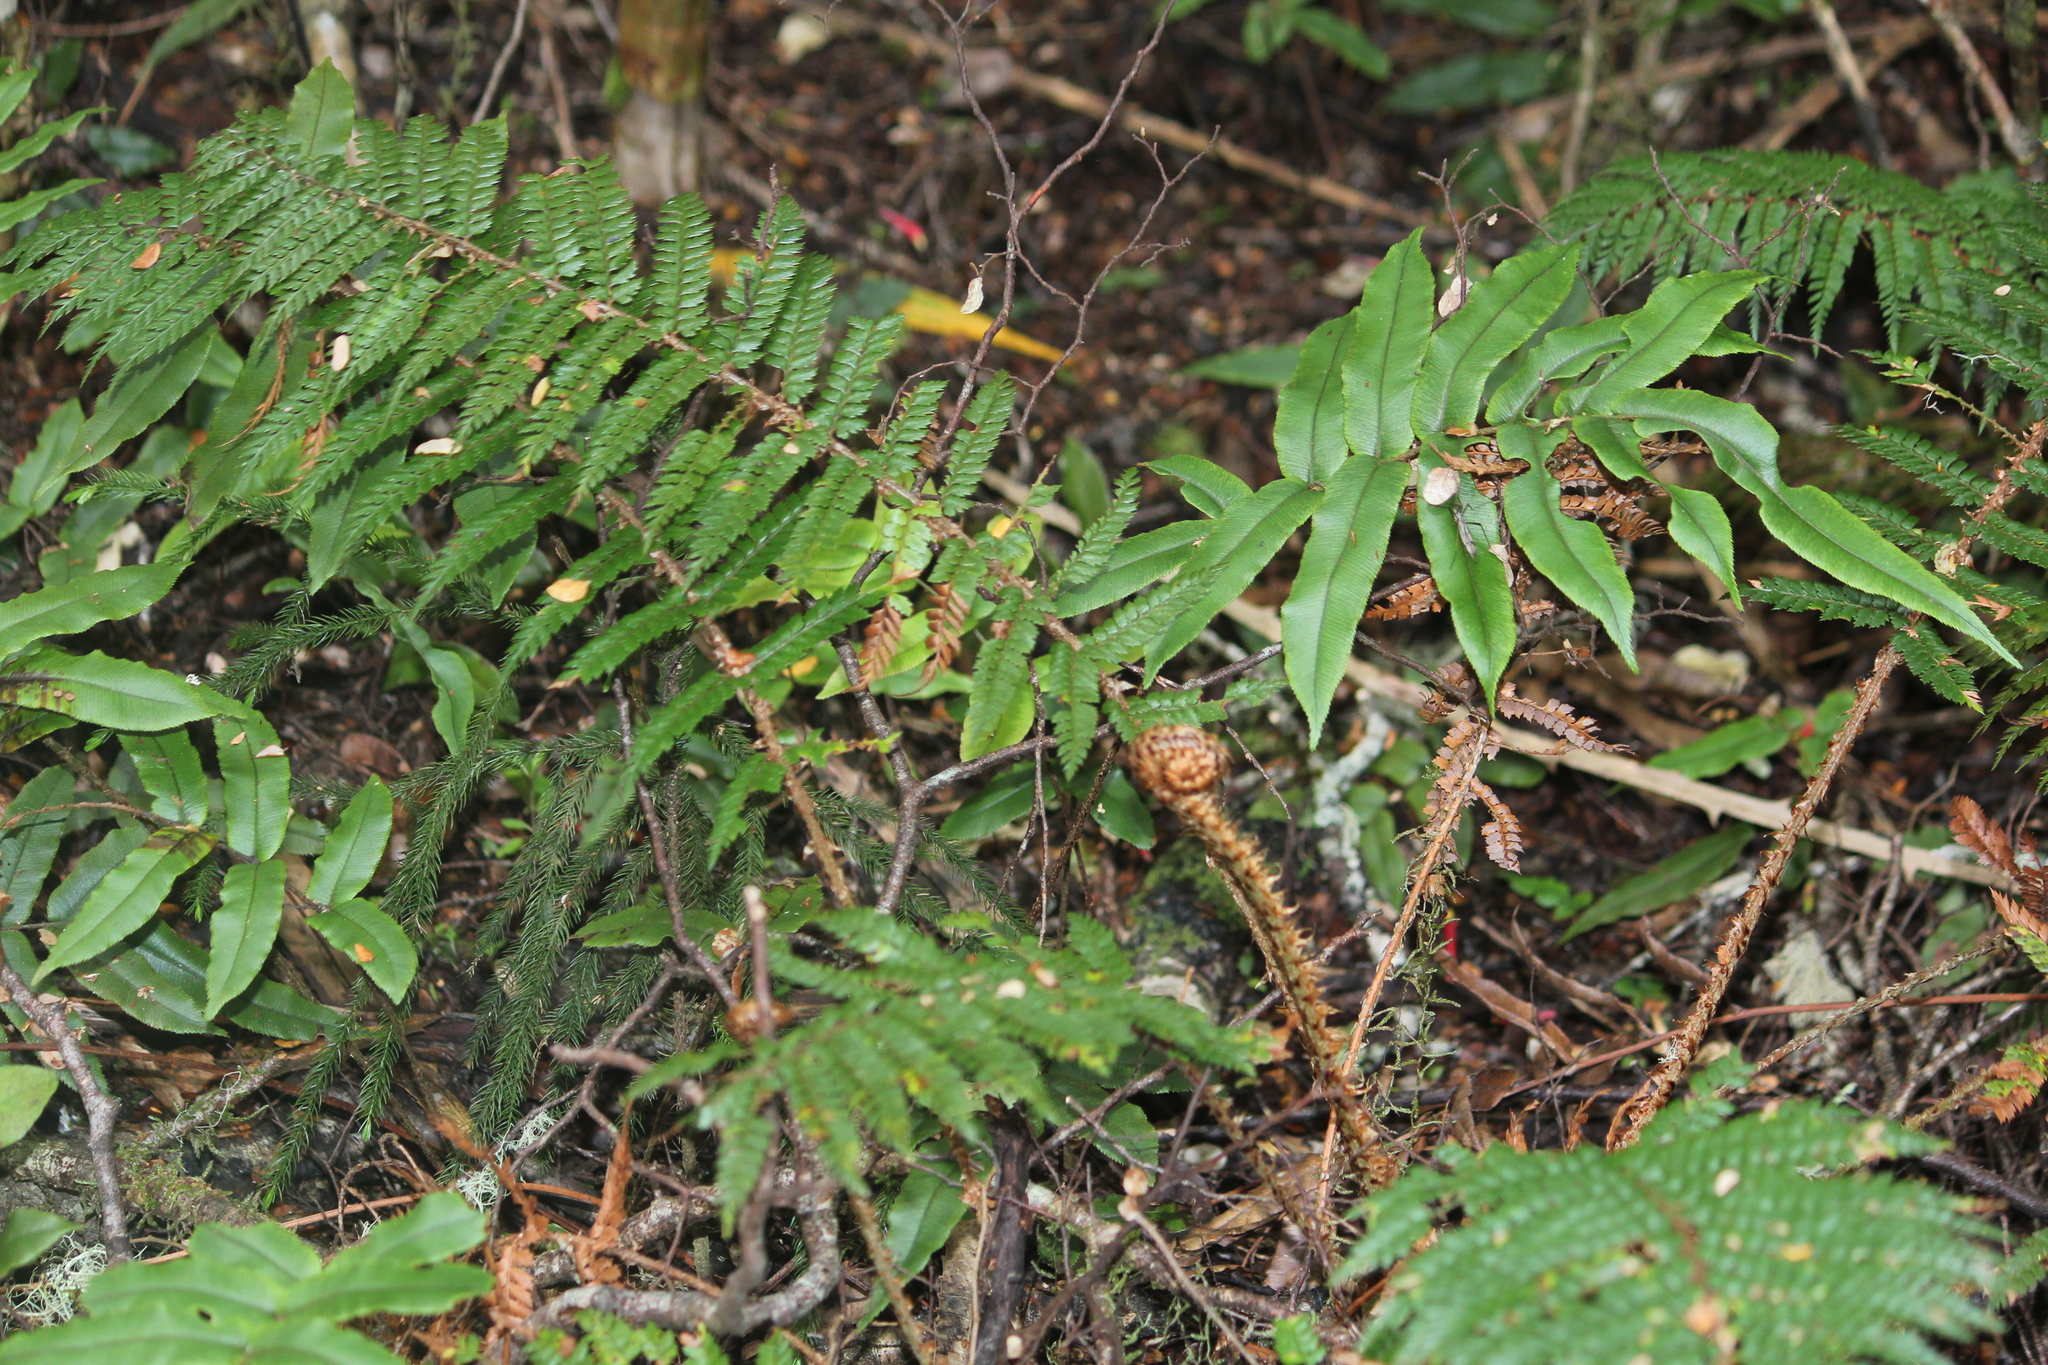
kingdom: Plantae
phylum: Tracheophyta
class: Polypodiopsida
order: Polypodiales
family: Dryopteridaceae
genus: Polystichum
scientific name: Polystichum vestitum
